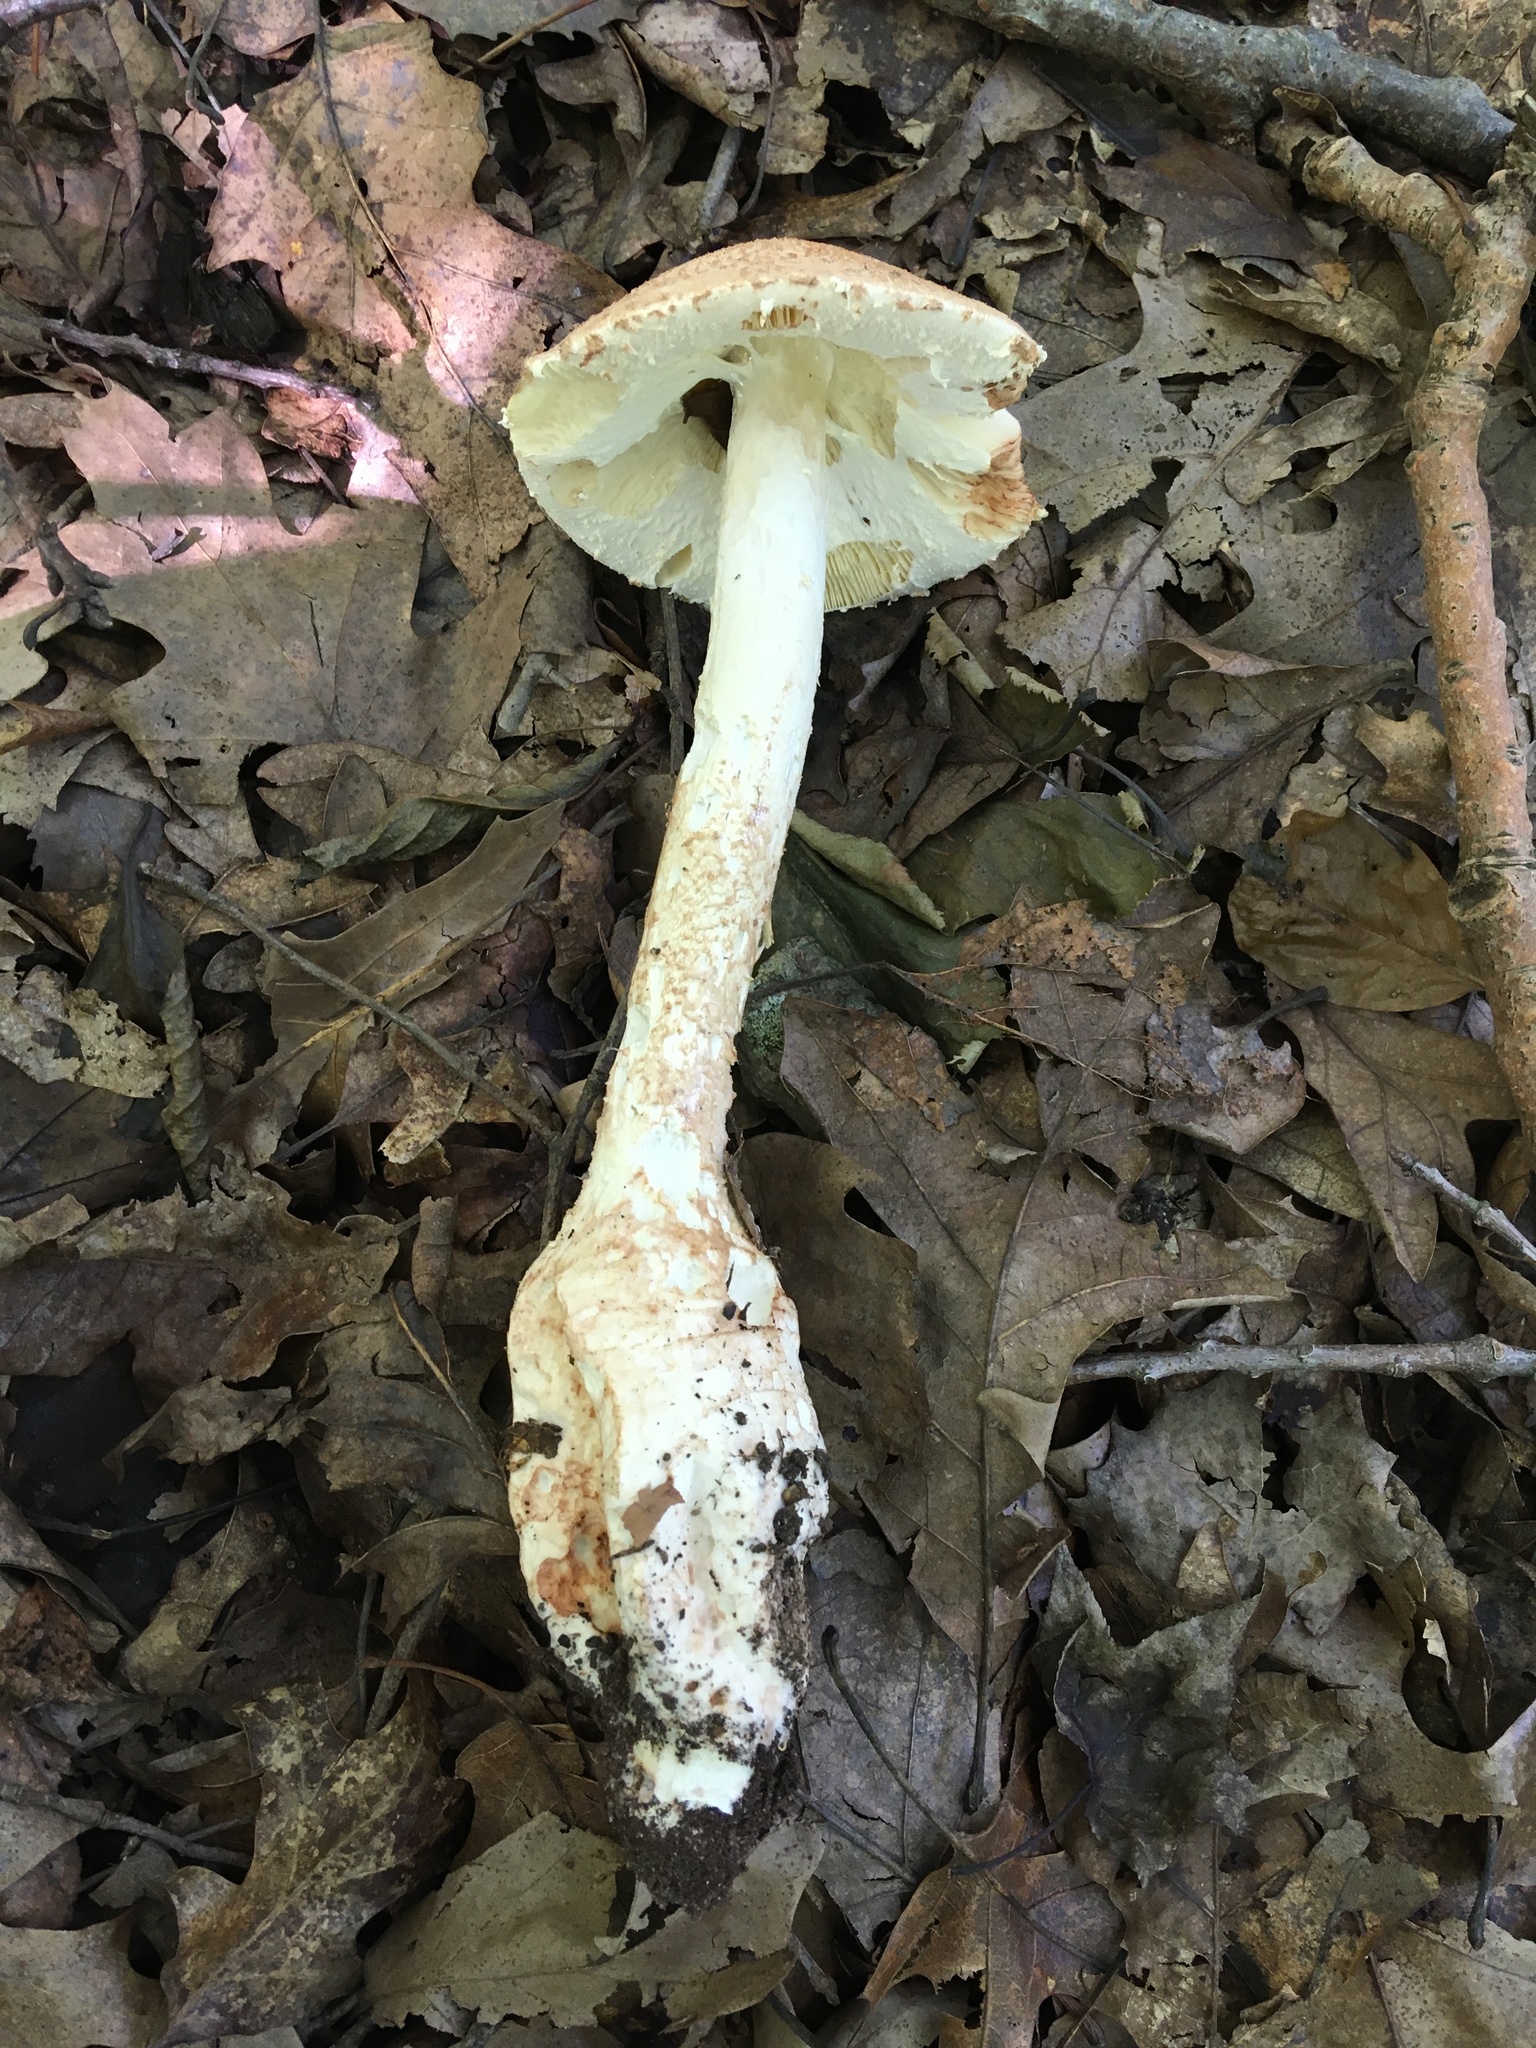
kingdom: Fungi
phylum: Basidiomycota
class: Agaricomycetes
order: Agaricales
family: Amanitaceae
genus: Amanita
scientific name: Amanita daucipes
